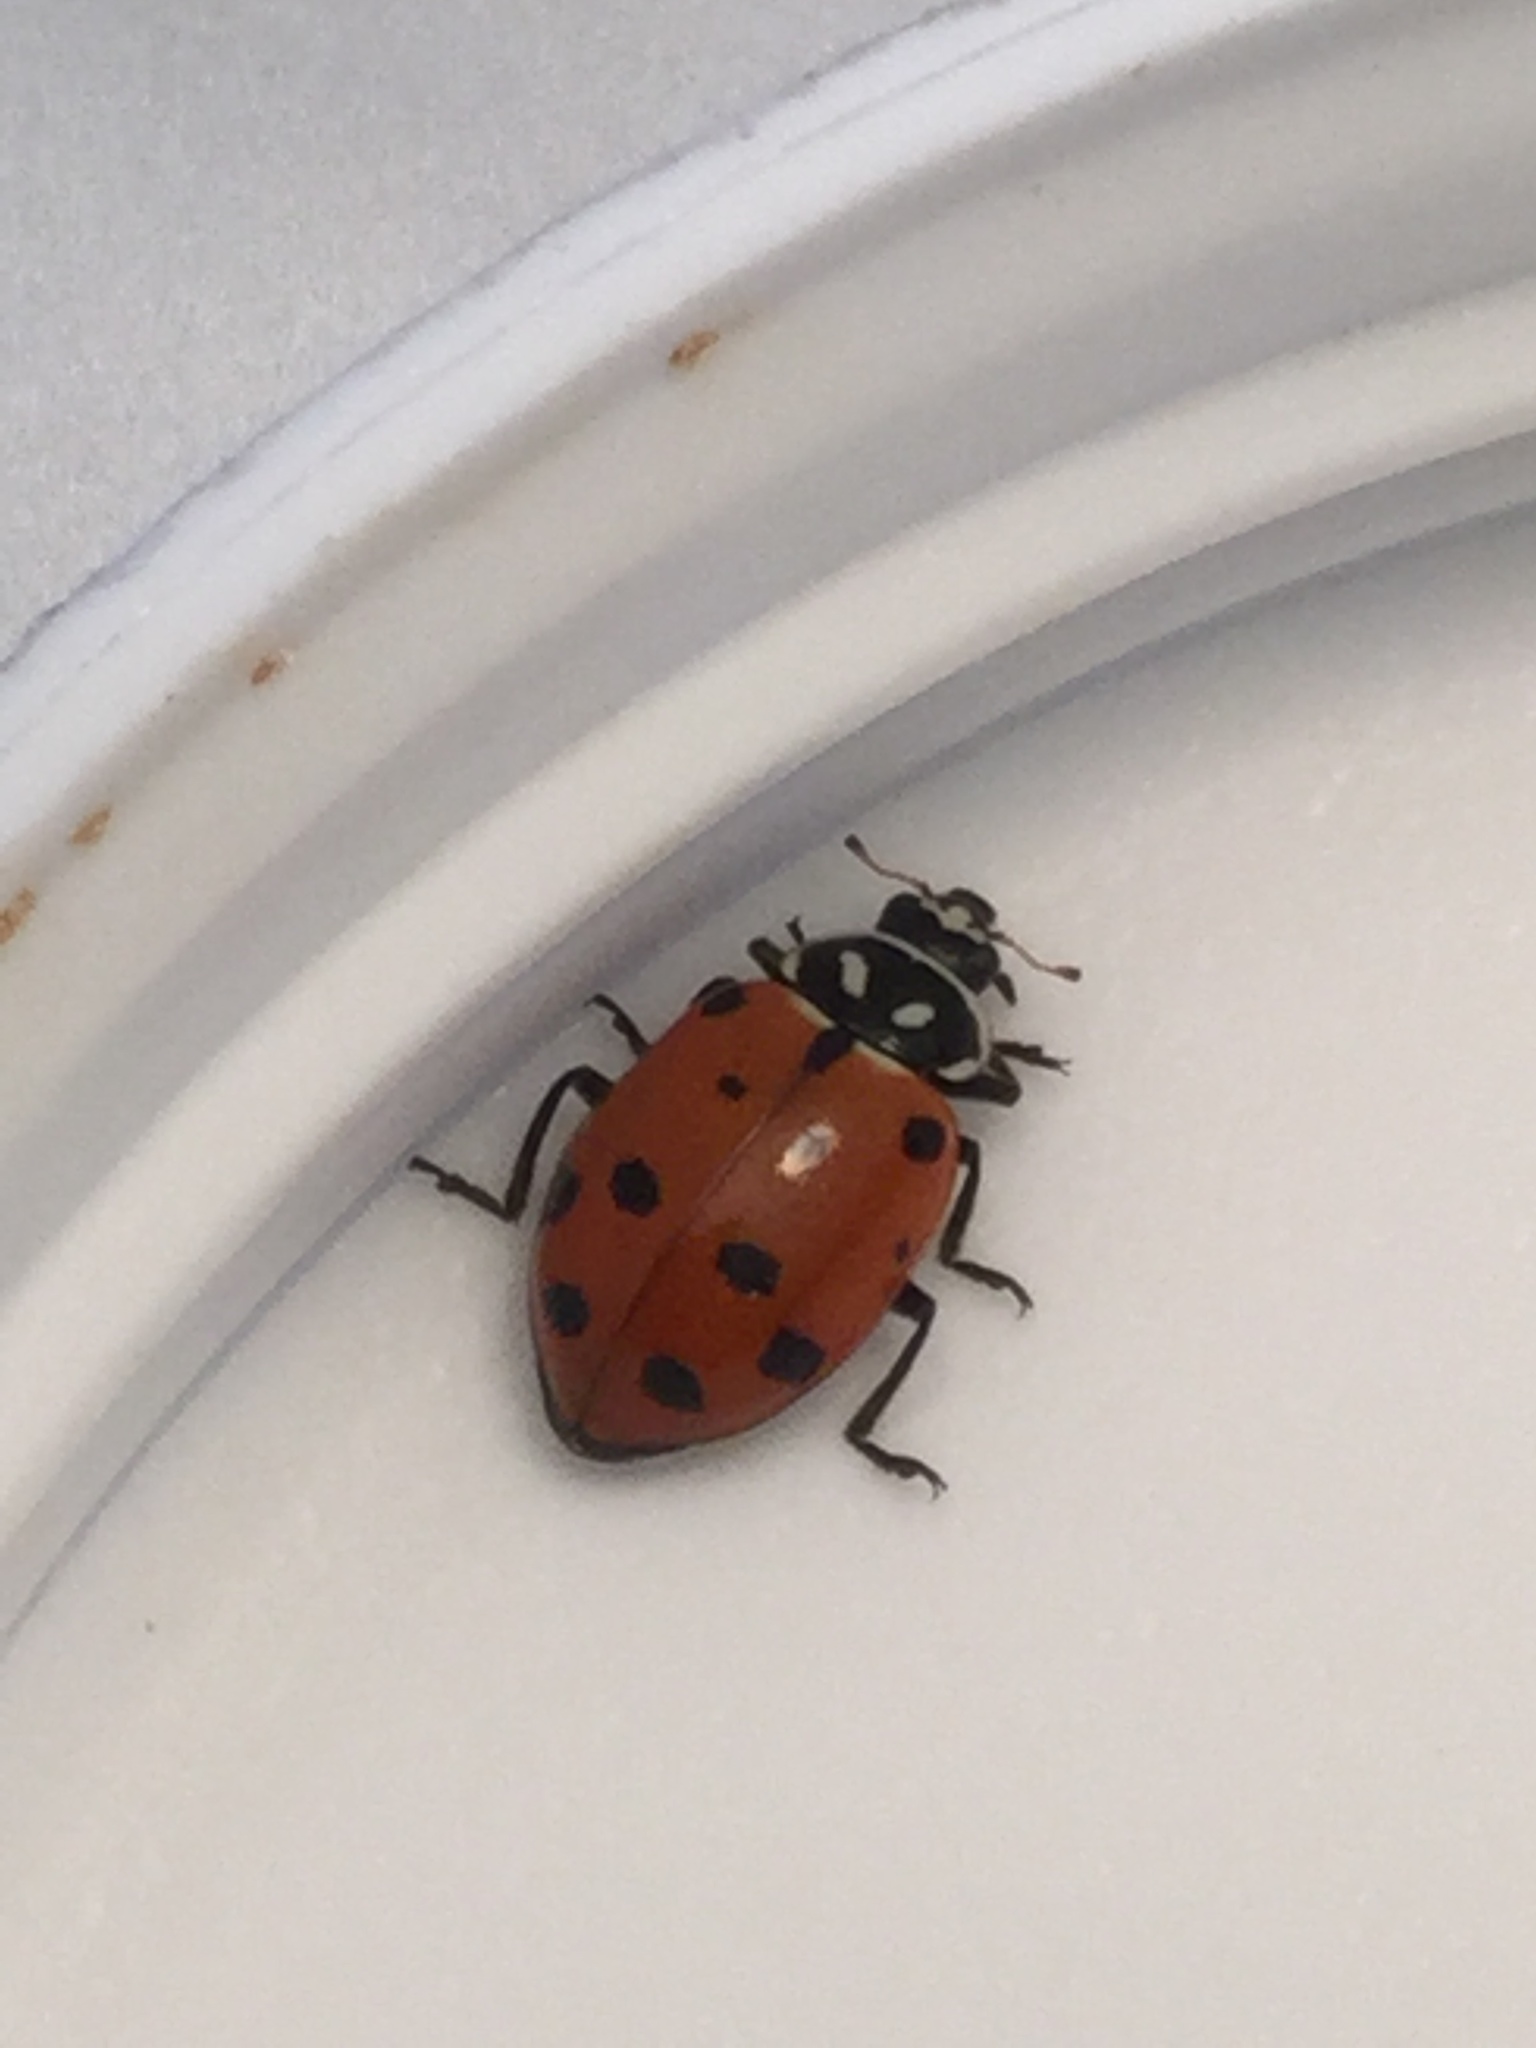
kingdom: Animalia
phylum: Arthropoda
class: Insecta
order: Coleoptera
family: Coccinellidae
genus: Hippodamia
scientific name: Hippodamia convergens
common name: Convergent lady beetle
